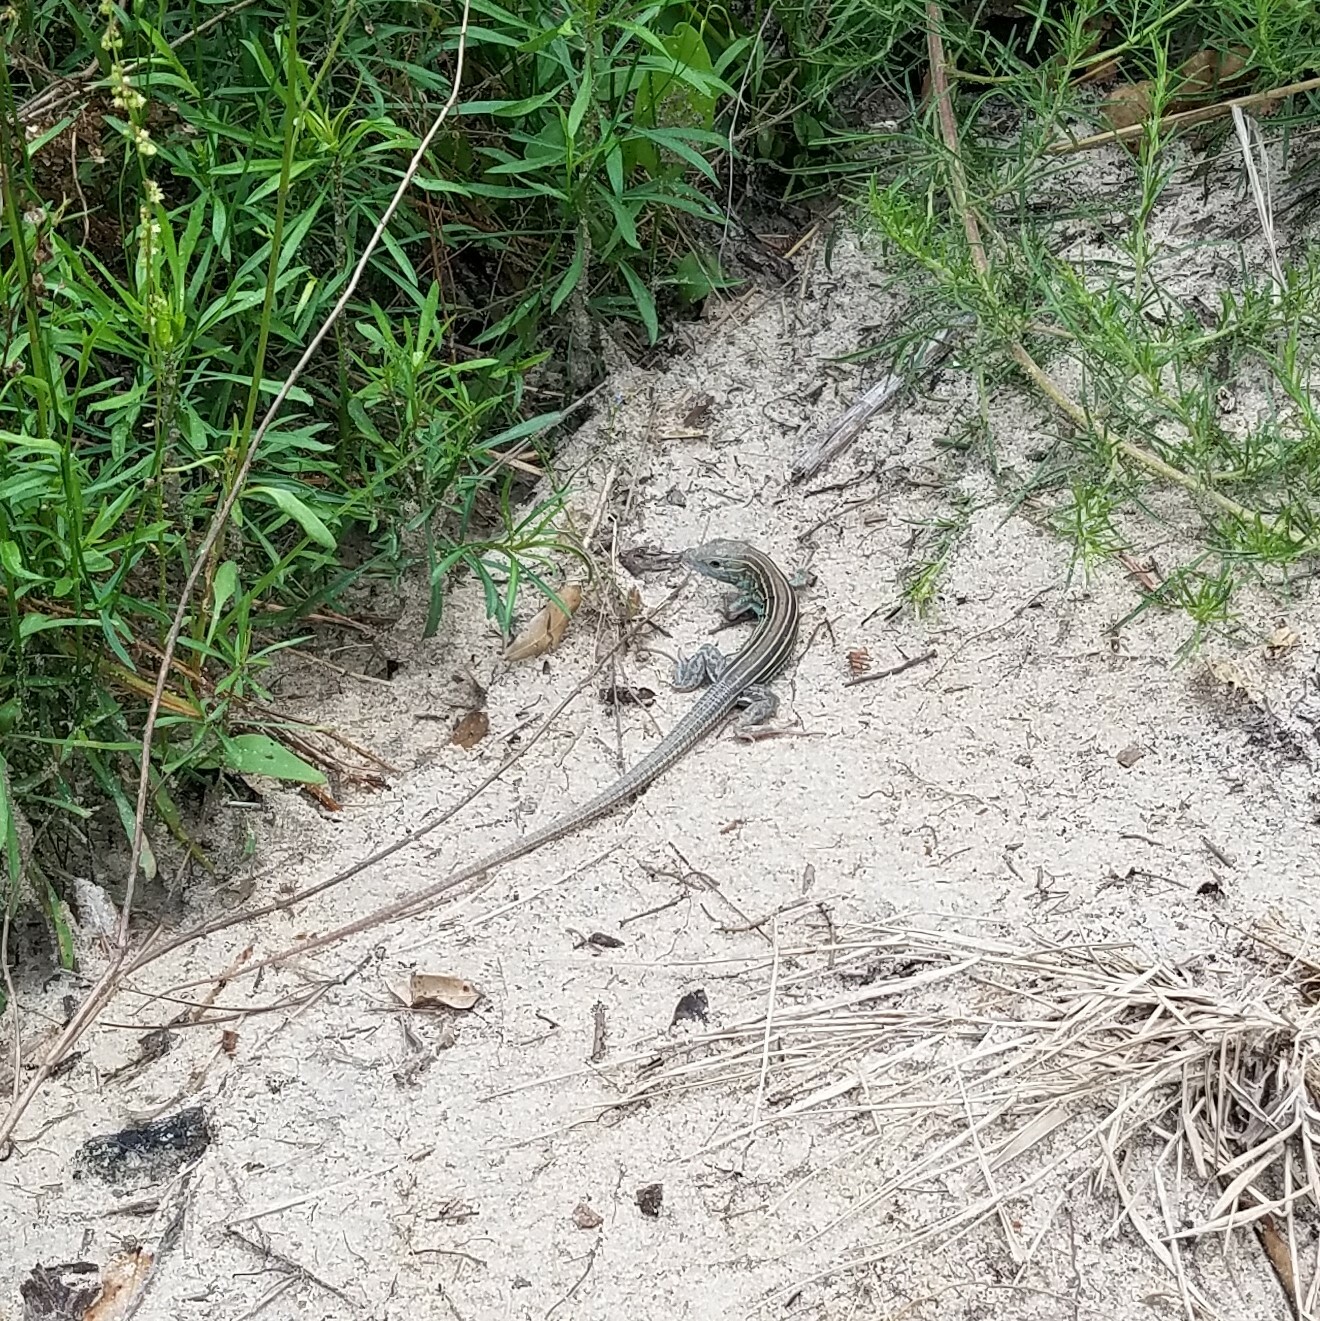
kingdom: Animalia
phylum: Chordata
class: Squamata
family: Teiidae
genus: Aspidoscelis
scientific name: Aspidoscelis sexlineatus
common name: Six-lined racerunner
